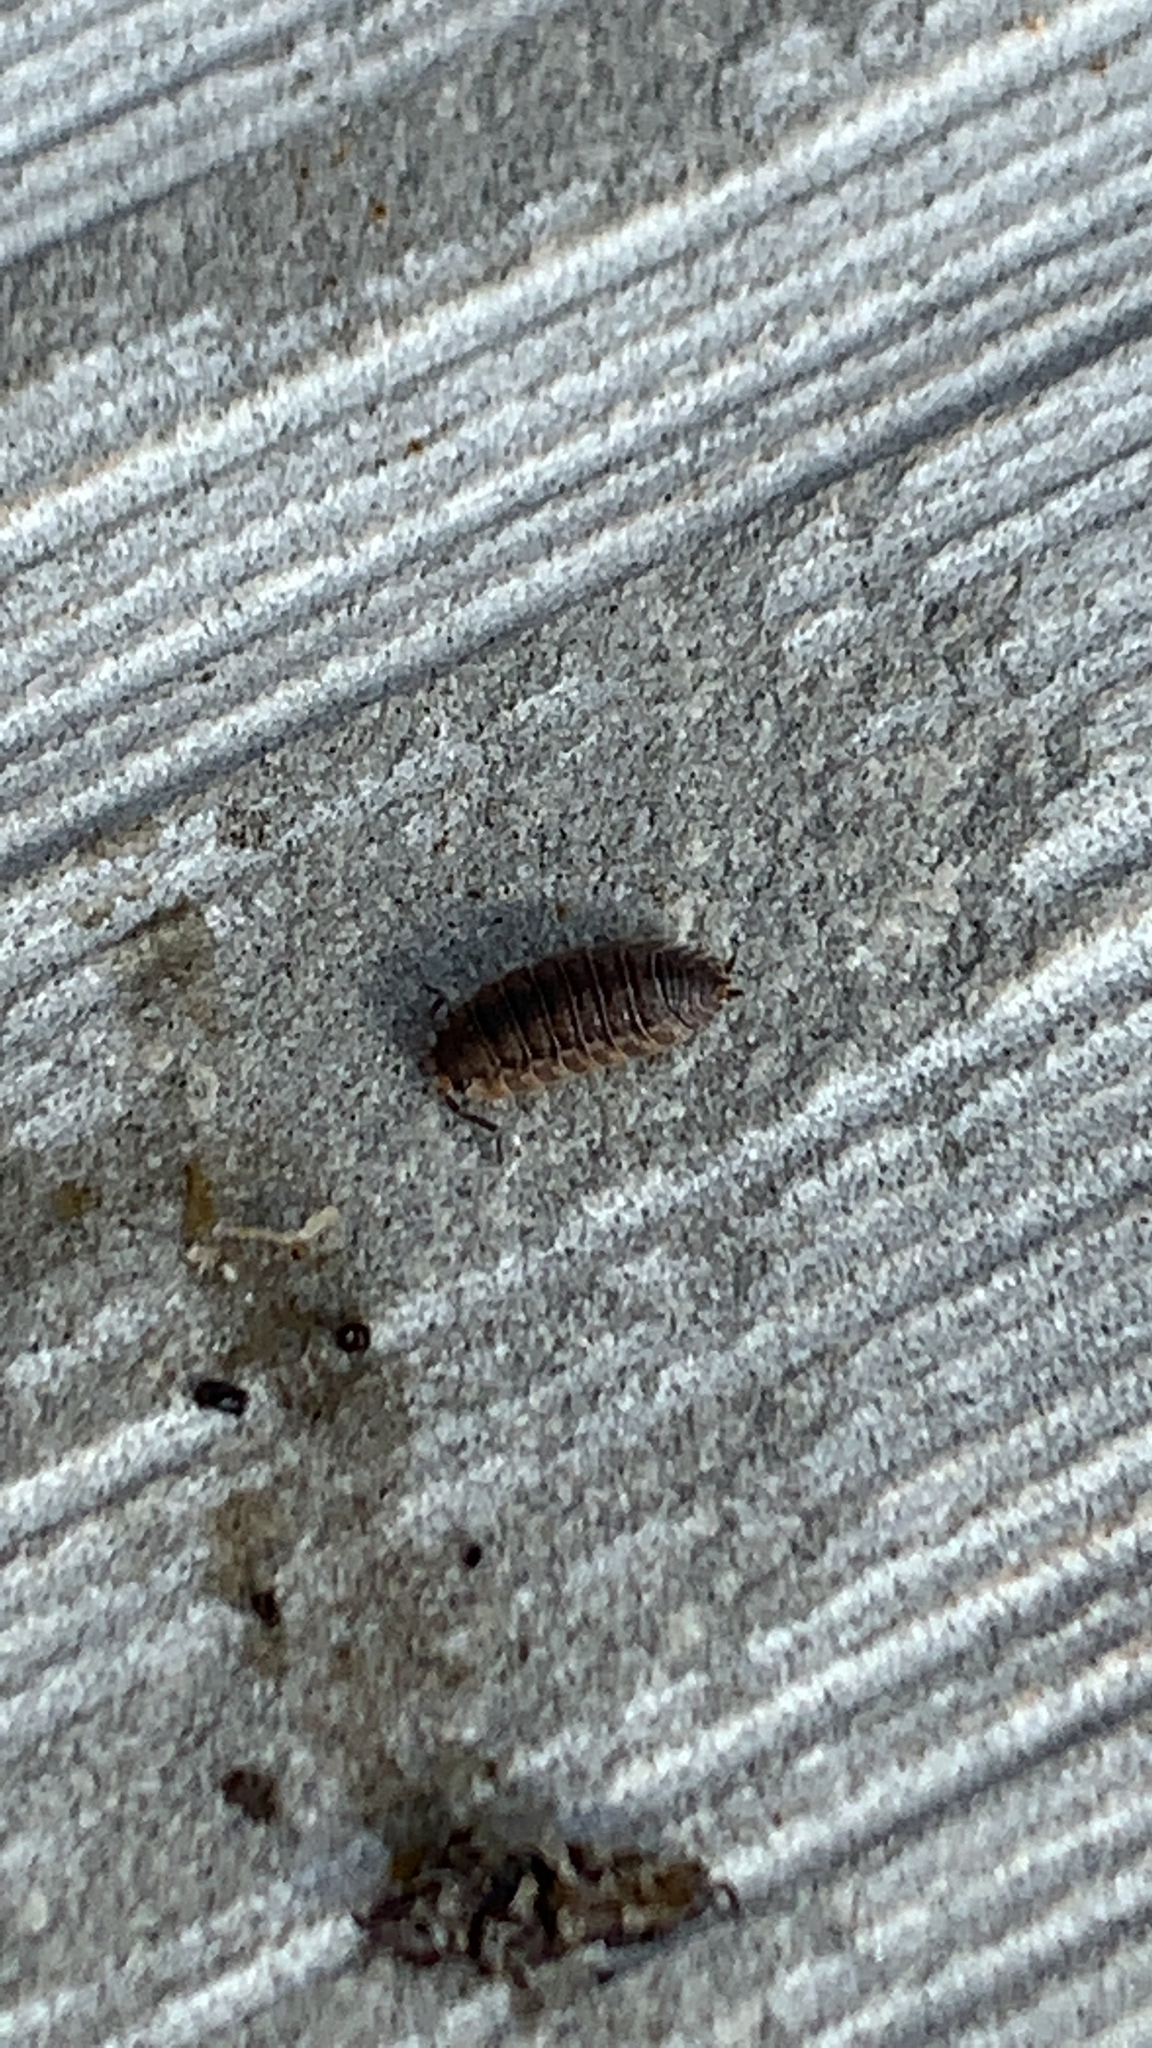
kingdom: Animalia
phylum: Arthropoda
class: Malacostraca
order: Isopoda
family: Porcellionidae
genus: Porcellio
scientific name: Porcellio scaber
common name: Common rough woodlouse
